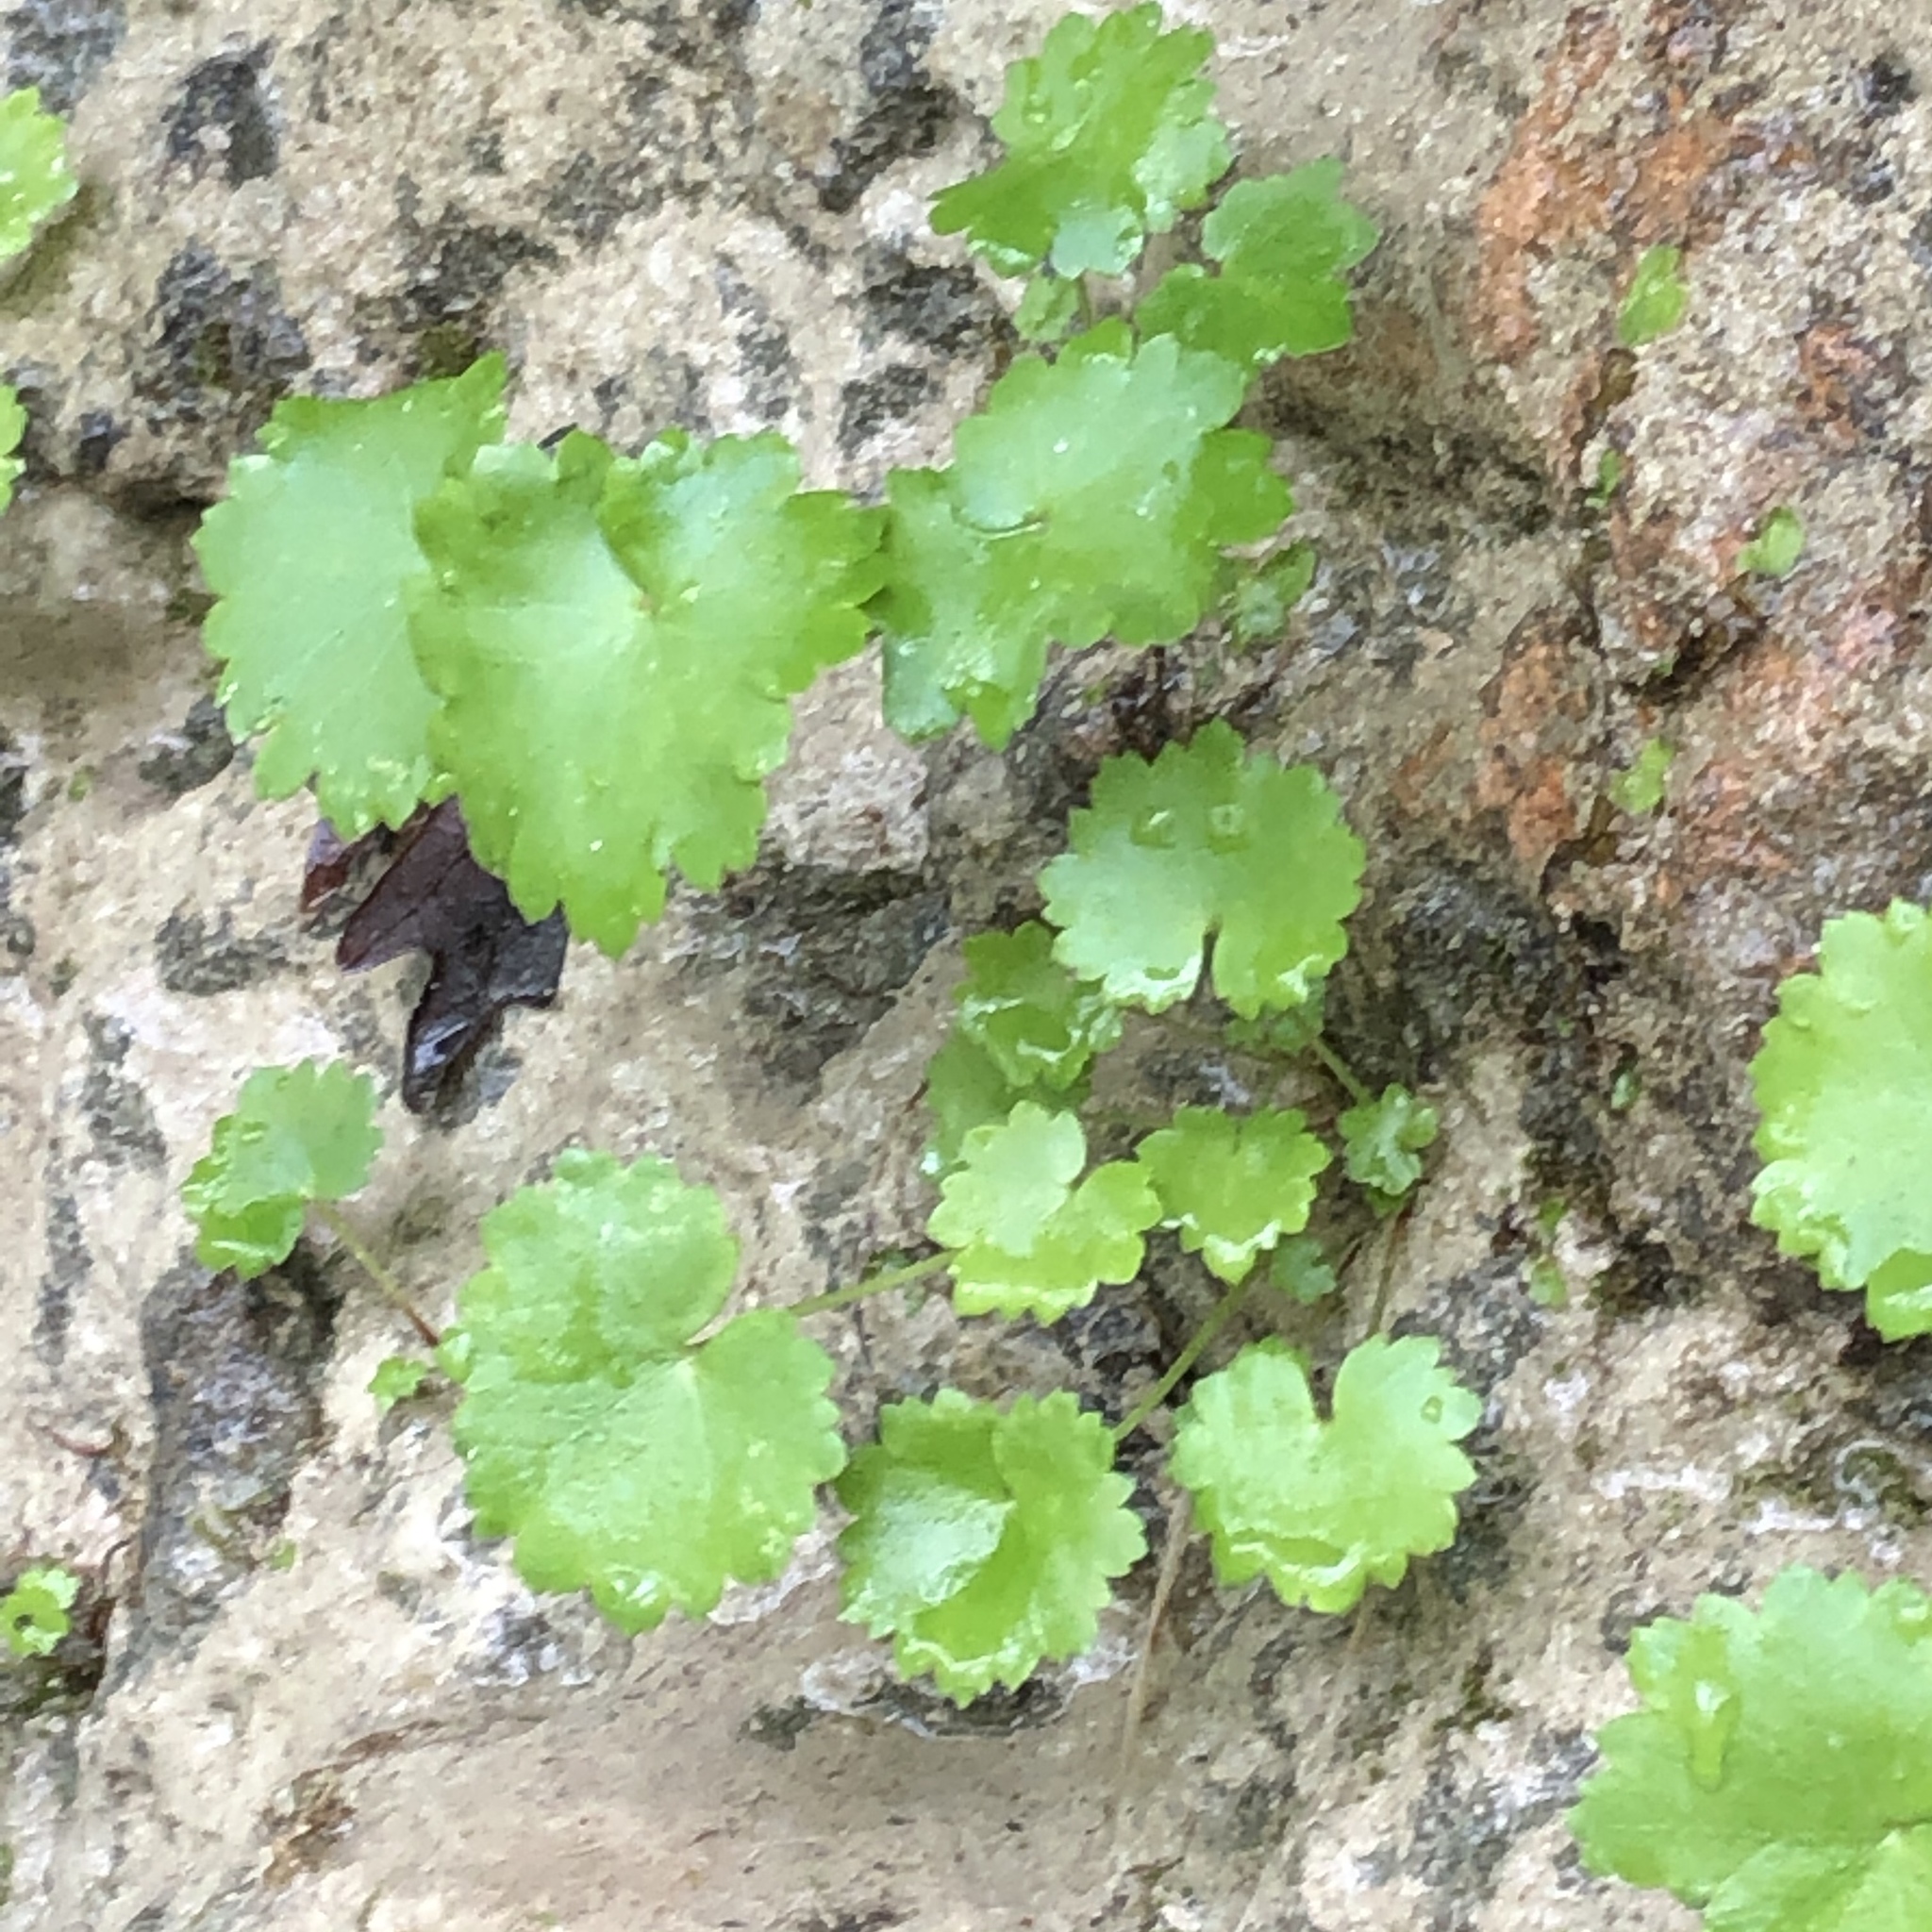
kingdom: Plantae
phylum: Tracheophyta
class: Magnoliopsida
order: Saxifragales
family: Saxifragaceae
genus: Sullivantia
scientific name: Sullivantia sullivantii
